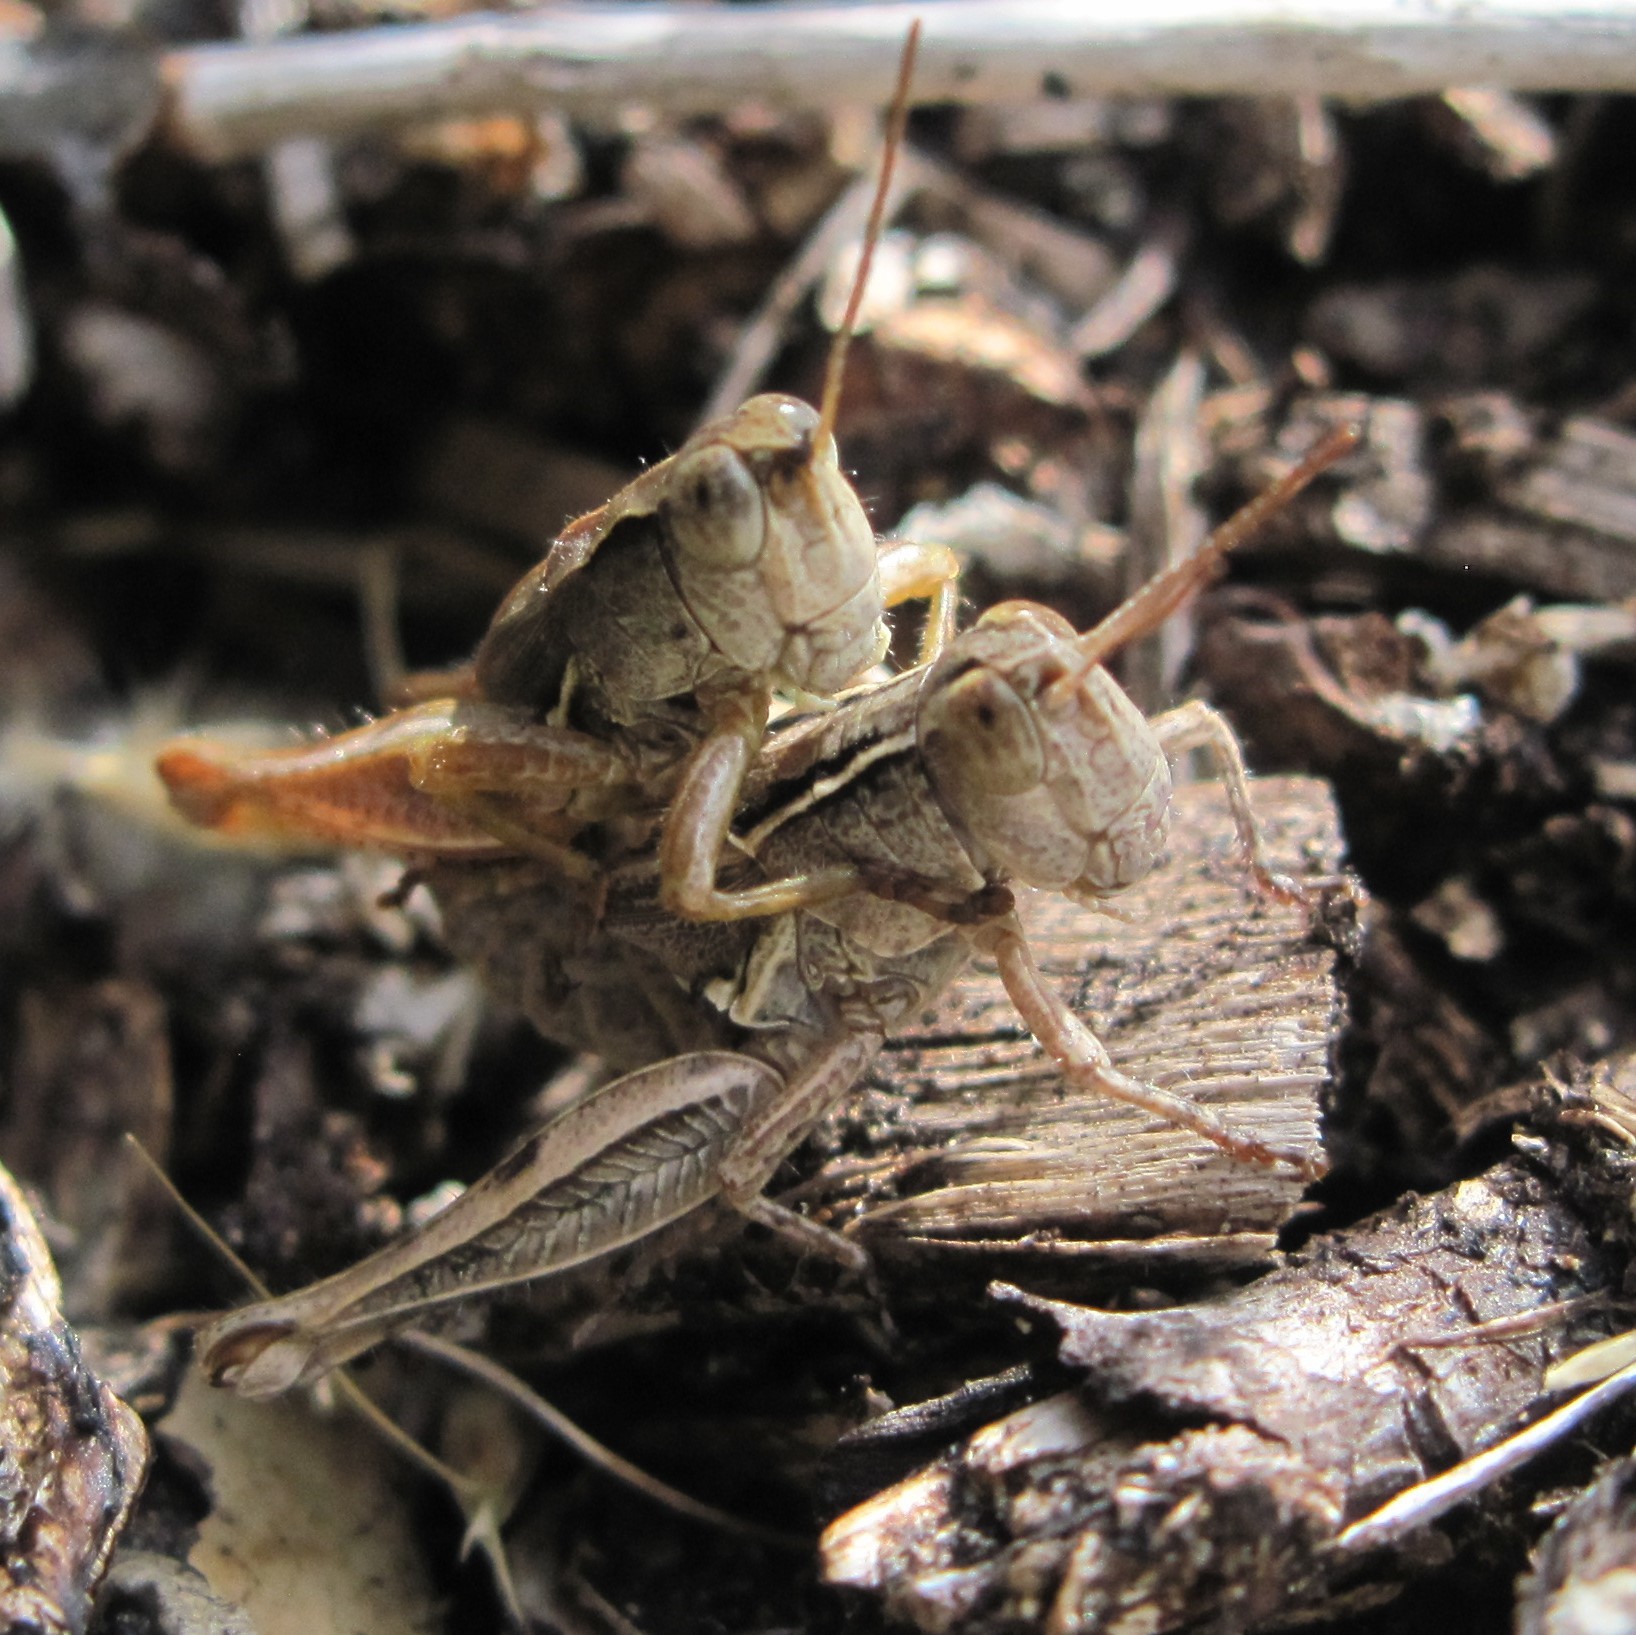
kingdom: Animalia
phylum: Arthropoda
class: Insecta
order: Orthoptera
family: Acrididae
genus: Phaulacridium
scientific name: Phaulacridium marginale
